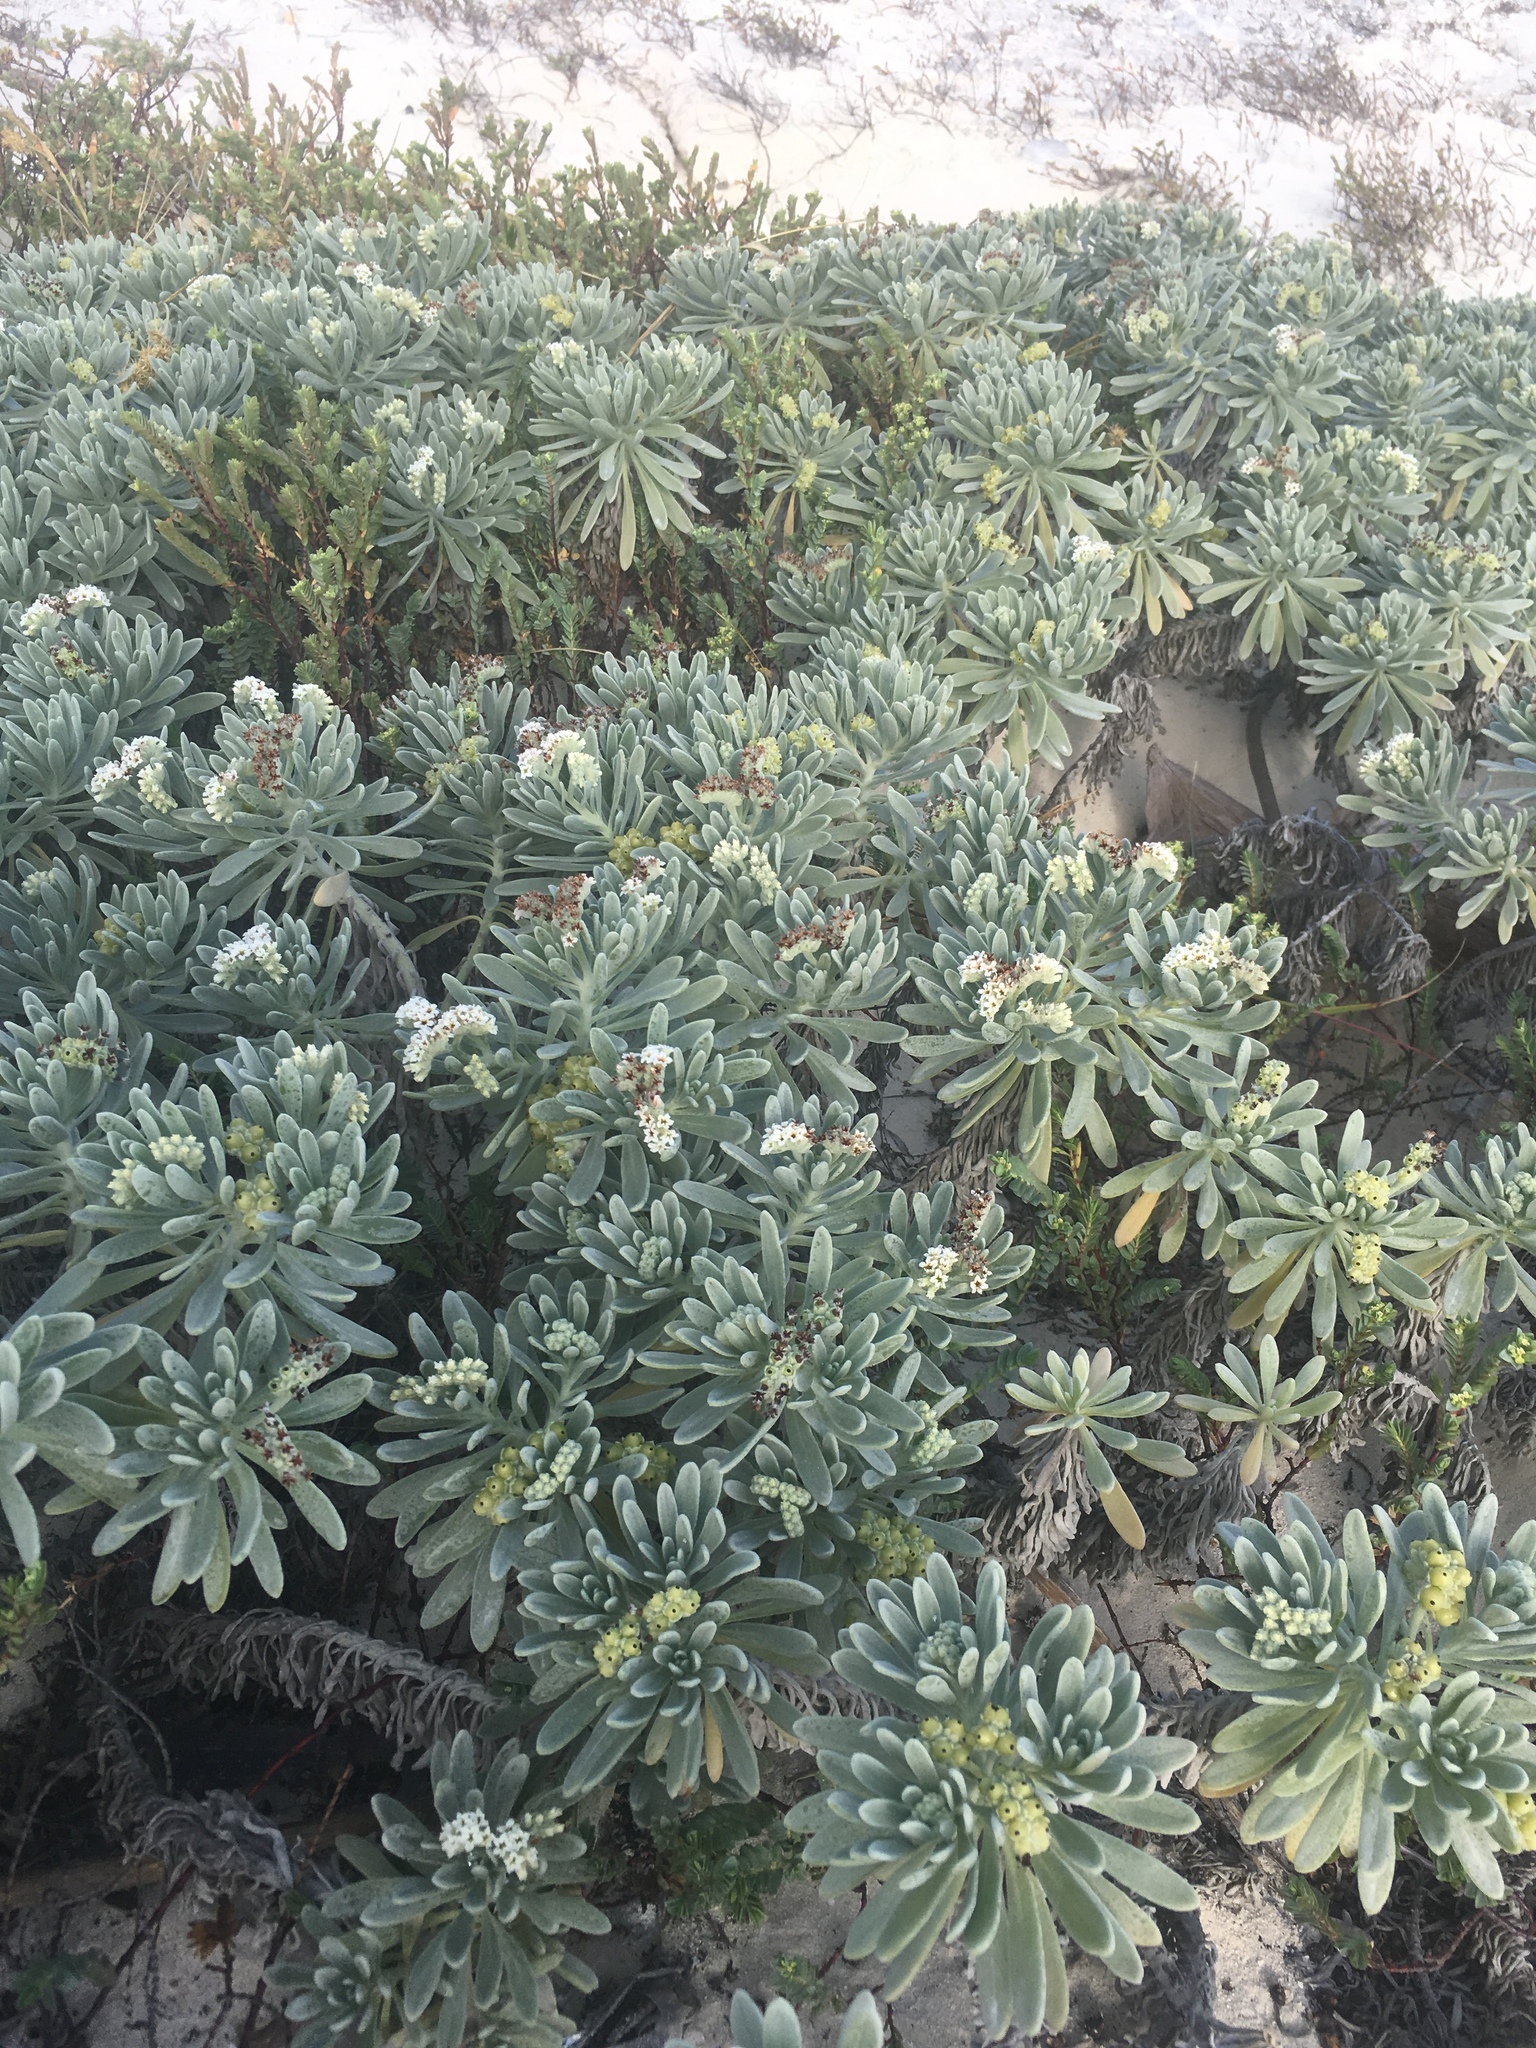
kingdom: Plantae
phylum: Tracheophyta
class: Magnoliopsida
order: Boraginales
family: Heliotropiaceae
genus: Tournefortia
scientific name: Tournefortia gnaphalodes
